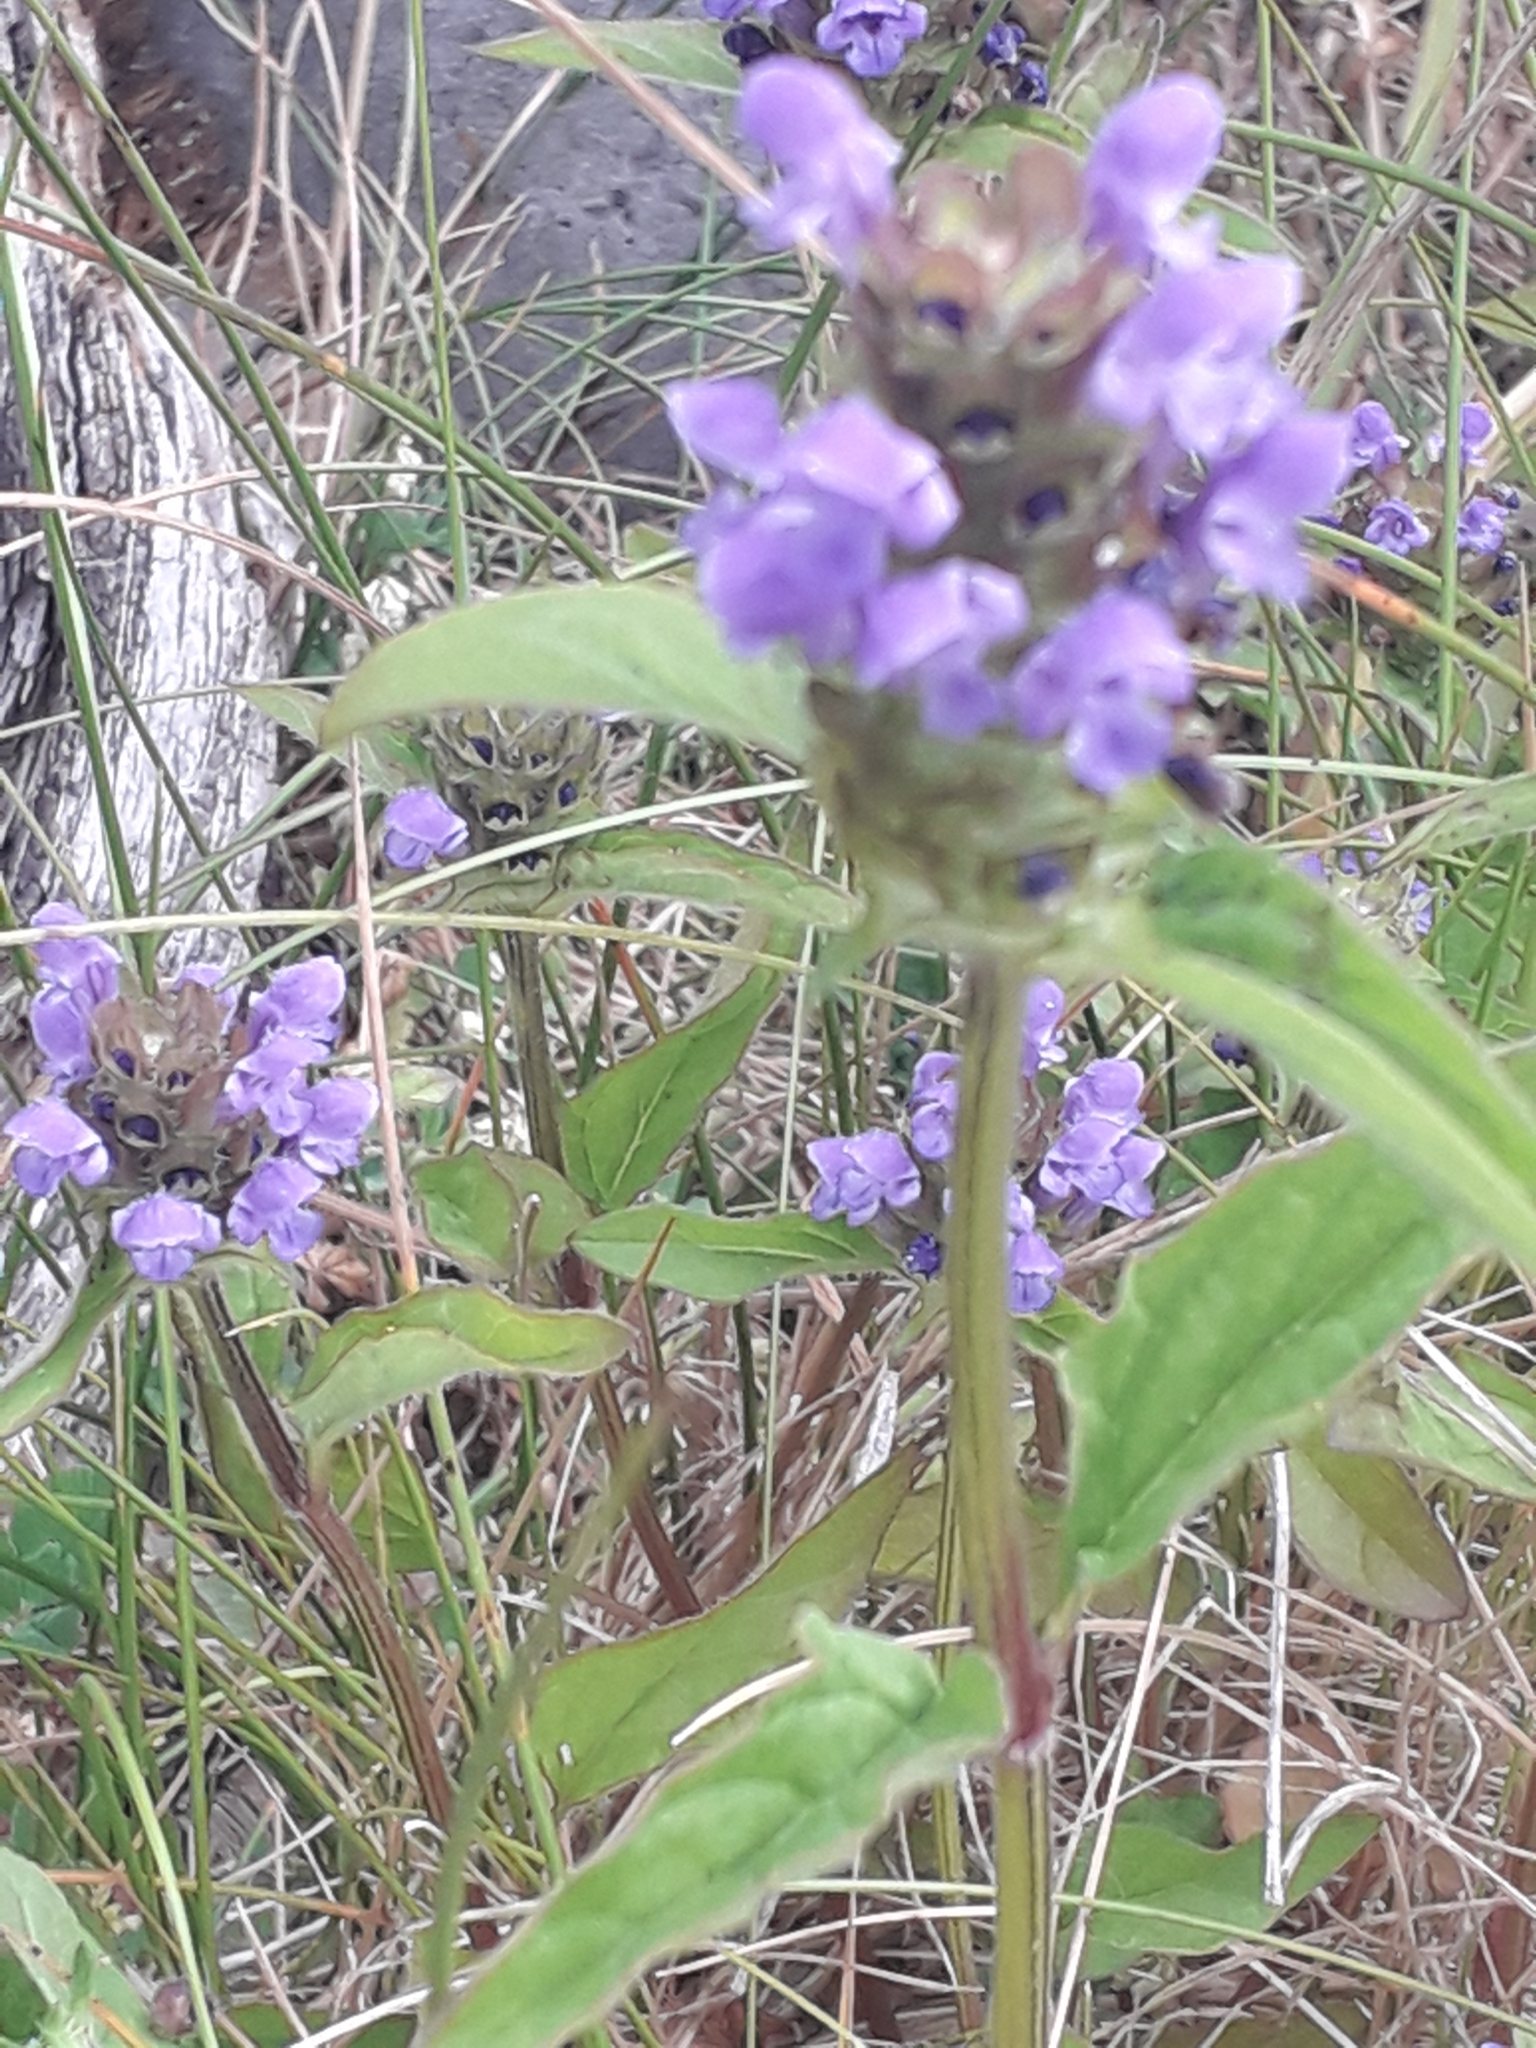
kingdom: Plantae
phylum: Tracheophyta
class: Magnoliopsida
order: Lamiales
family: Lamiaceae
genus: Prunella
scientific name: Prunella vulgaris
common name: Heal-all
